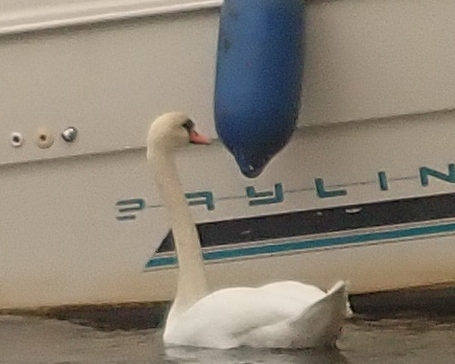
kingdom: Animalia
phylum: Chordata
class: Aves
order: Anseriformes
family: Anatidae
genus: Cygnus
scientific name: Cygnus olor
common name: Mute swan
